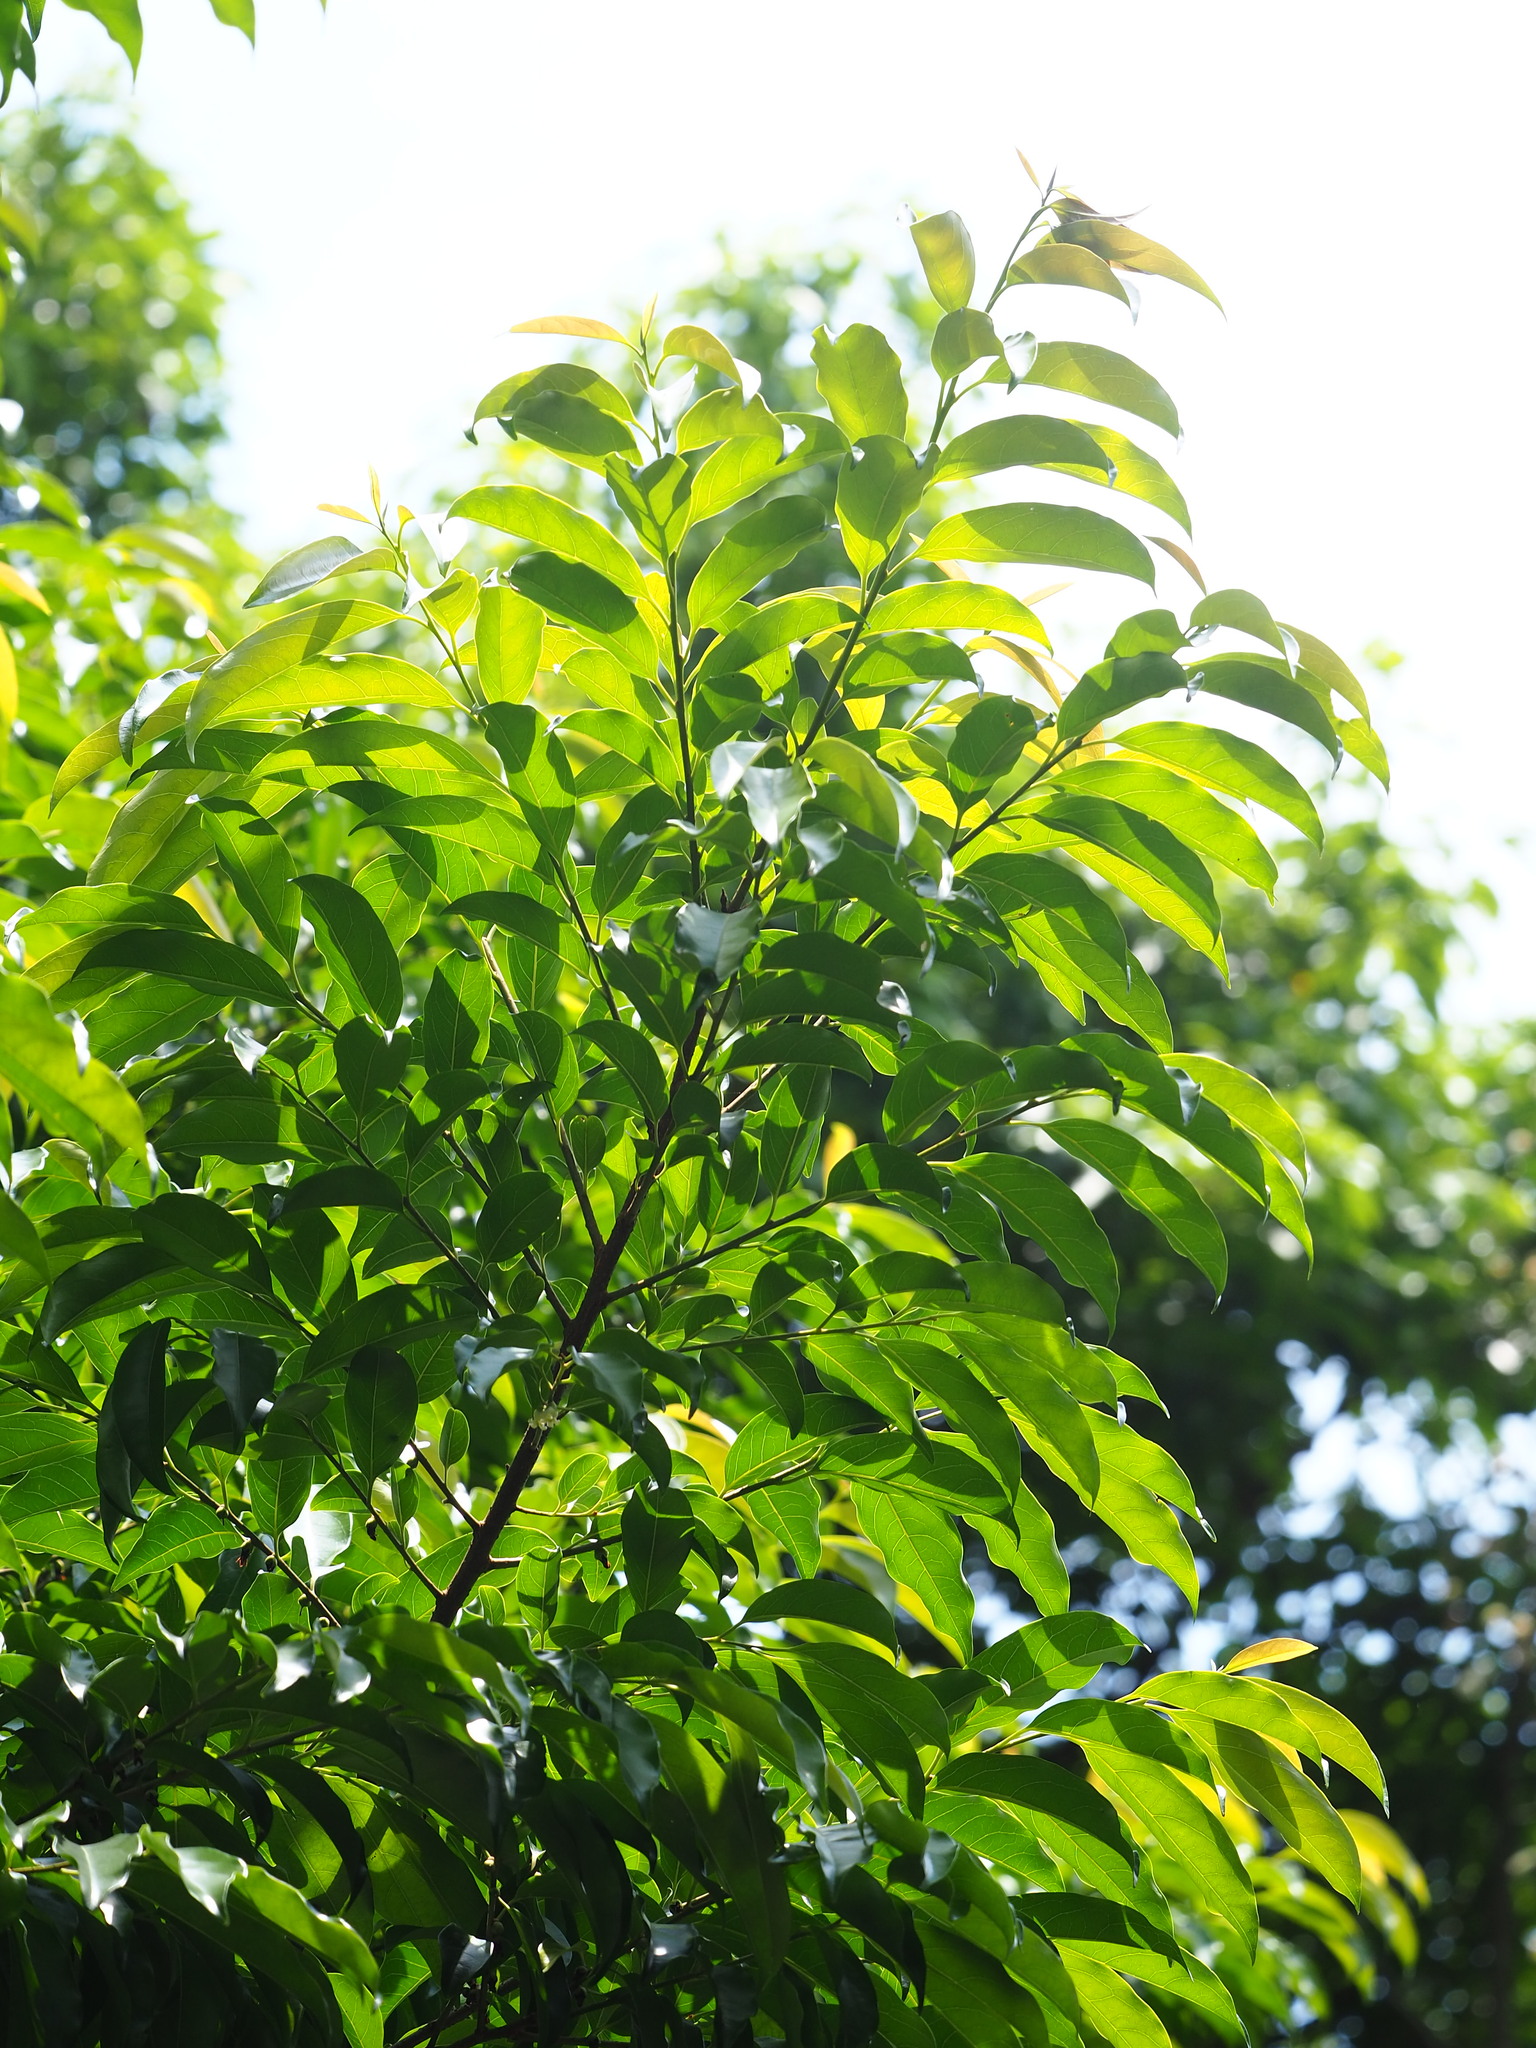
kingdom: Plantae
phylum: Tracheophyta
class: Magnoliopsida
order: Ericales
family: Ebenaceae
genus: Diospyros
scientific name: Diospyros morrisiana
